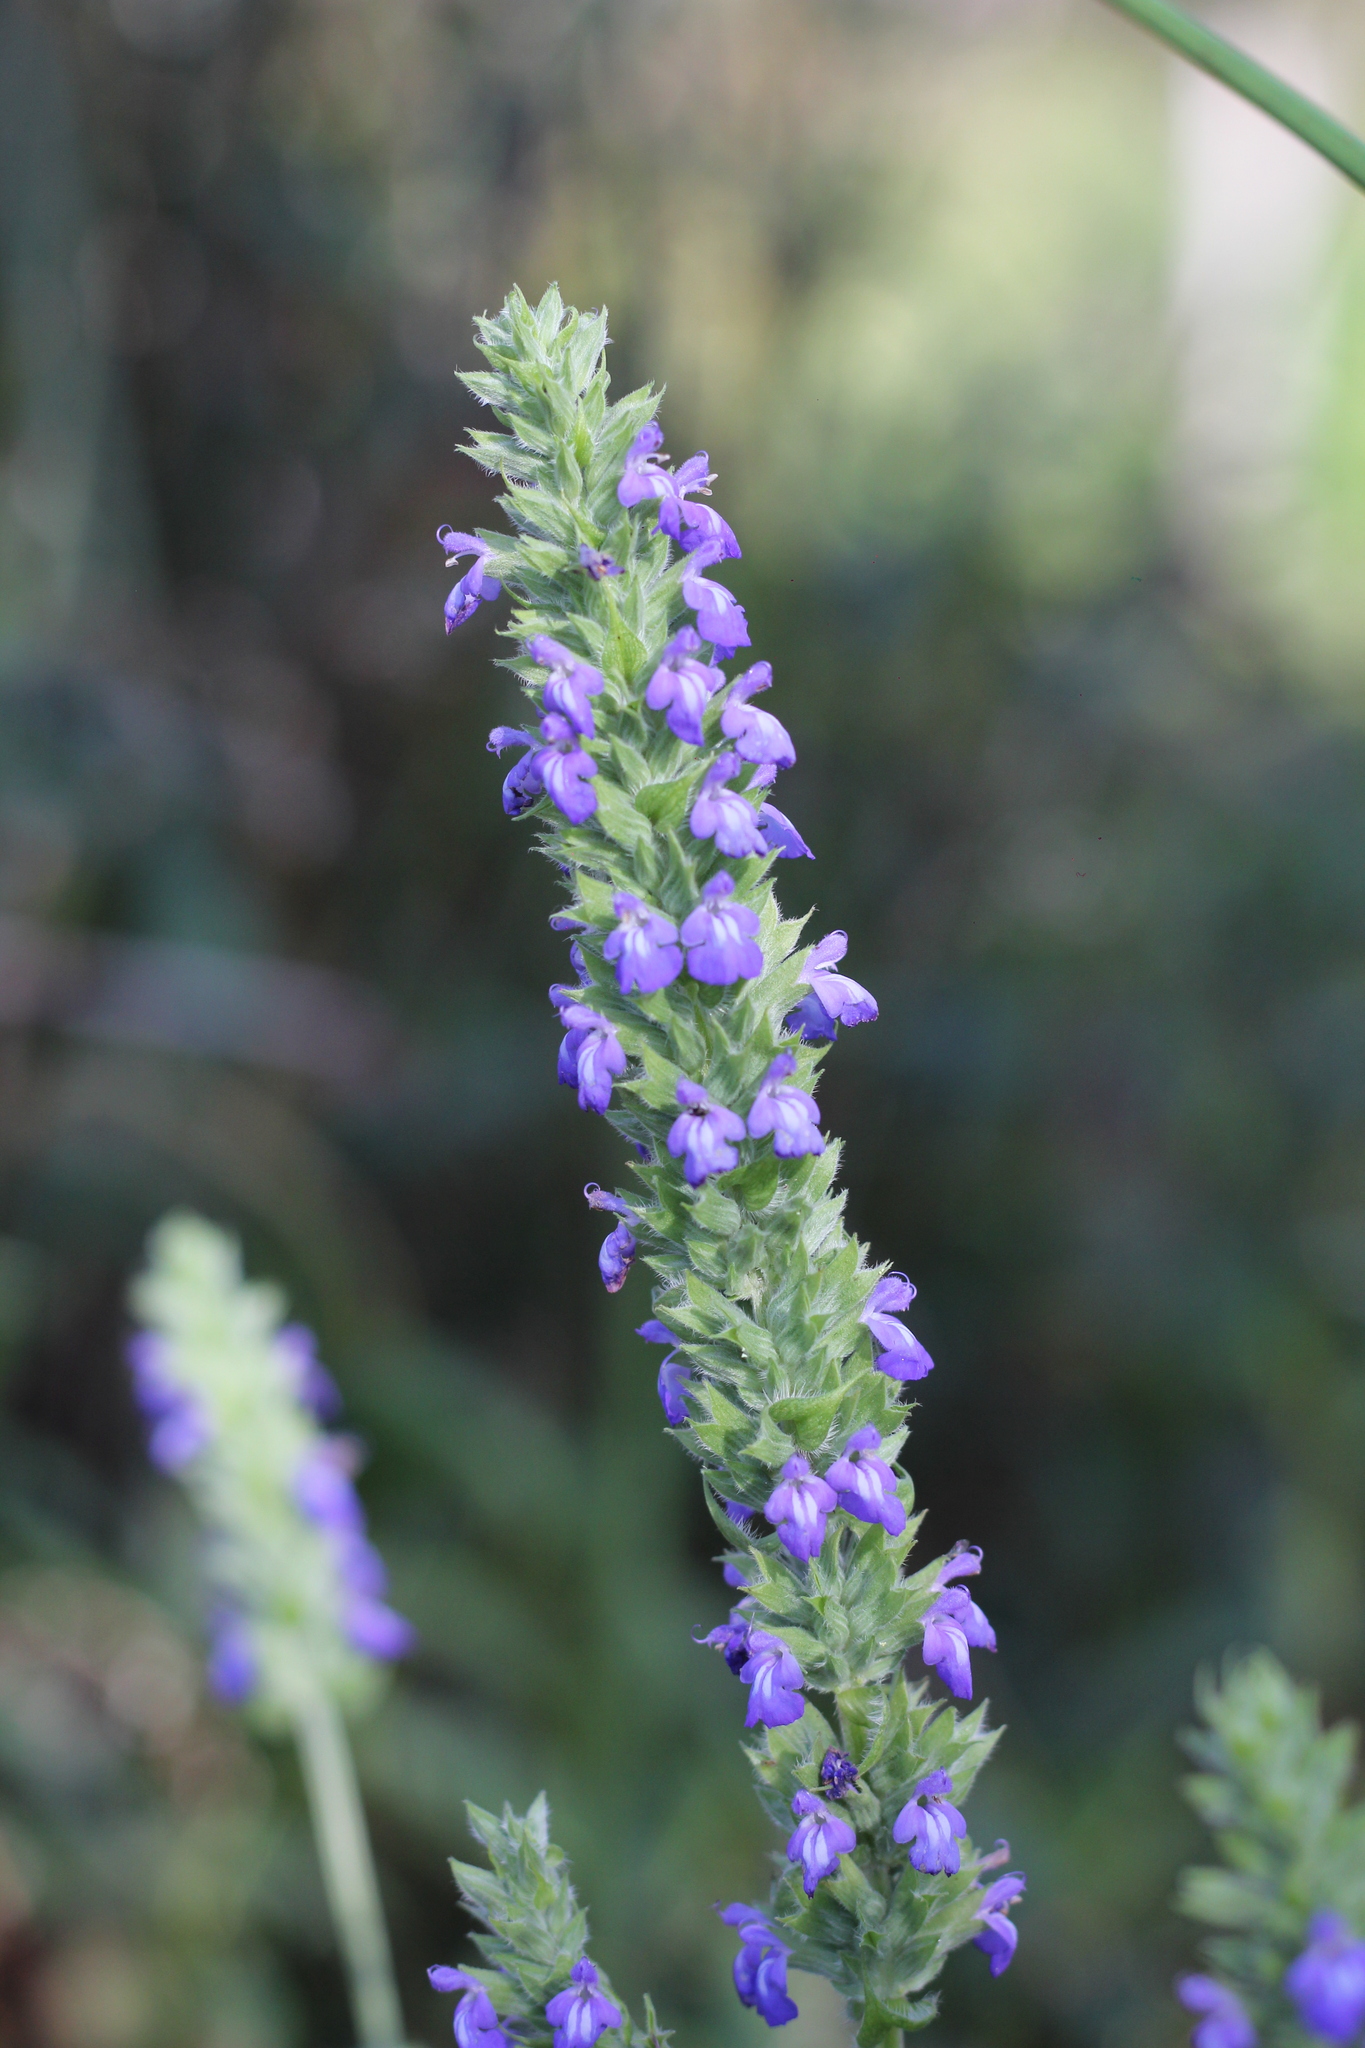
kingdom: Plantae
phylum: Tracheophyta
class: Magnoliopsida
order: Lamiales
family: Lamiaceae
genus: Salvia
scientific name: Salvia hispanica
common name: Chia
